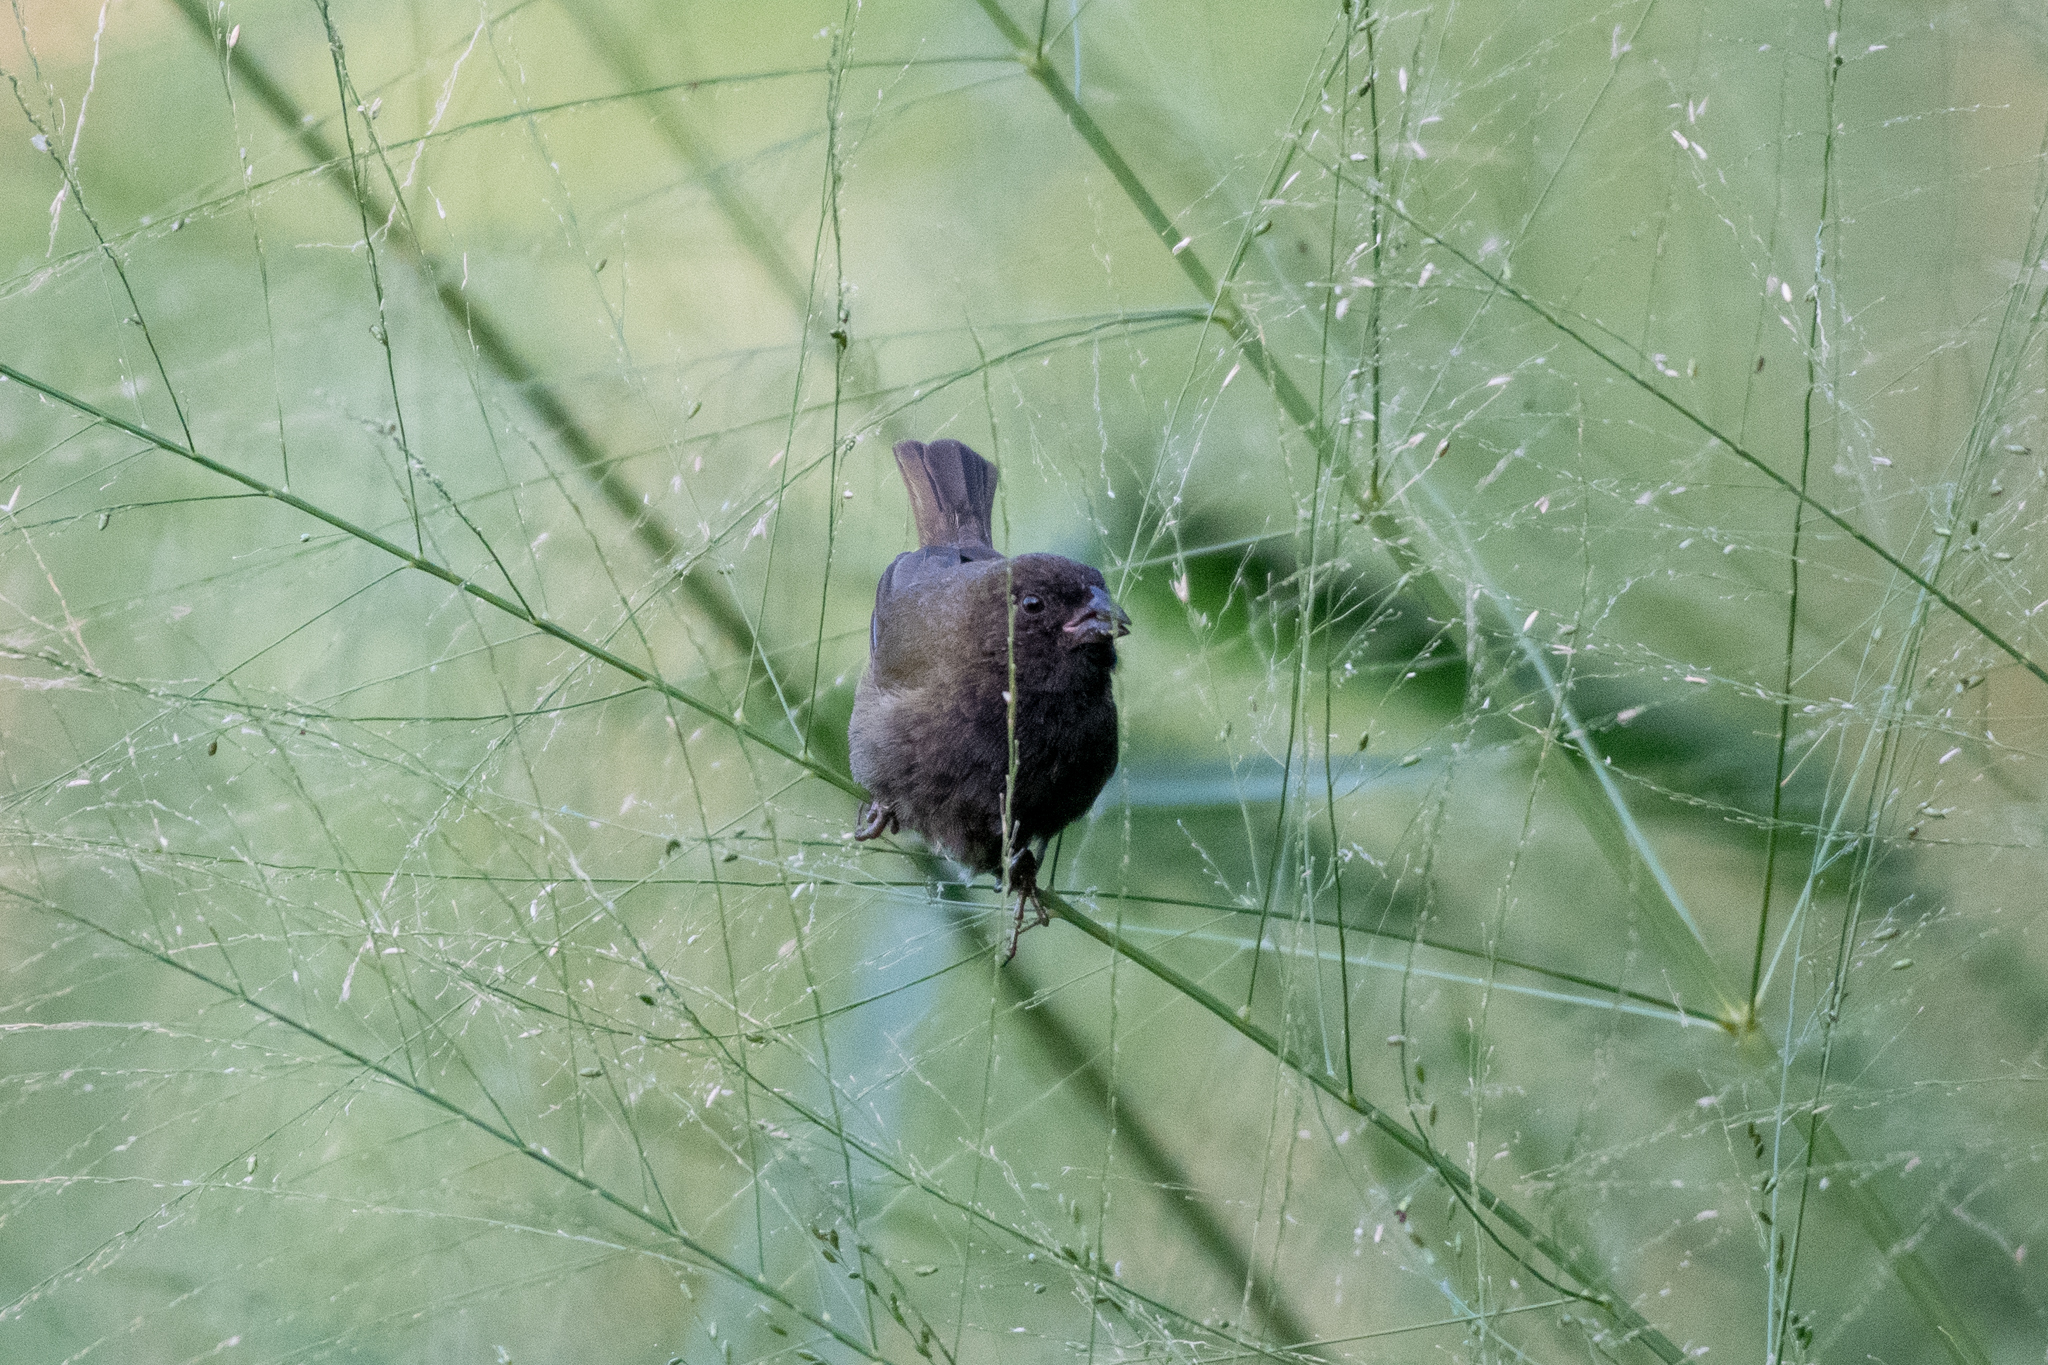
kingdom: Animalia
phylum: Chordata
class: Aves
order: Passeriformes
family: Thraupidae
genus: Melanospiza
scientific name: Melanospiza bicolor
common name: Black-faced grassquit
